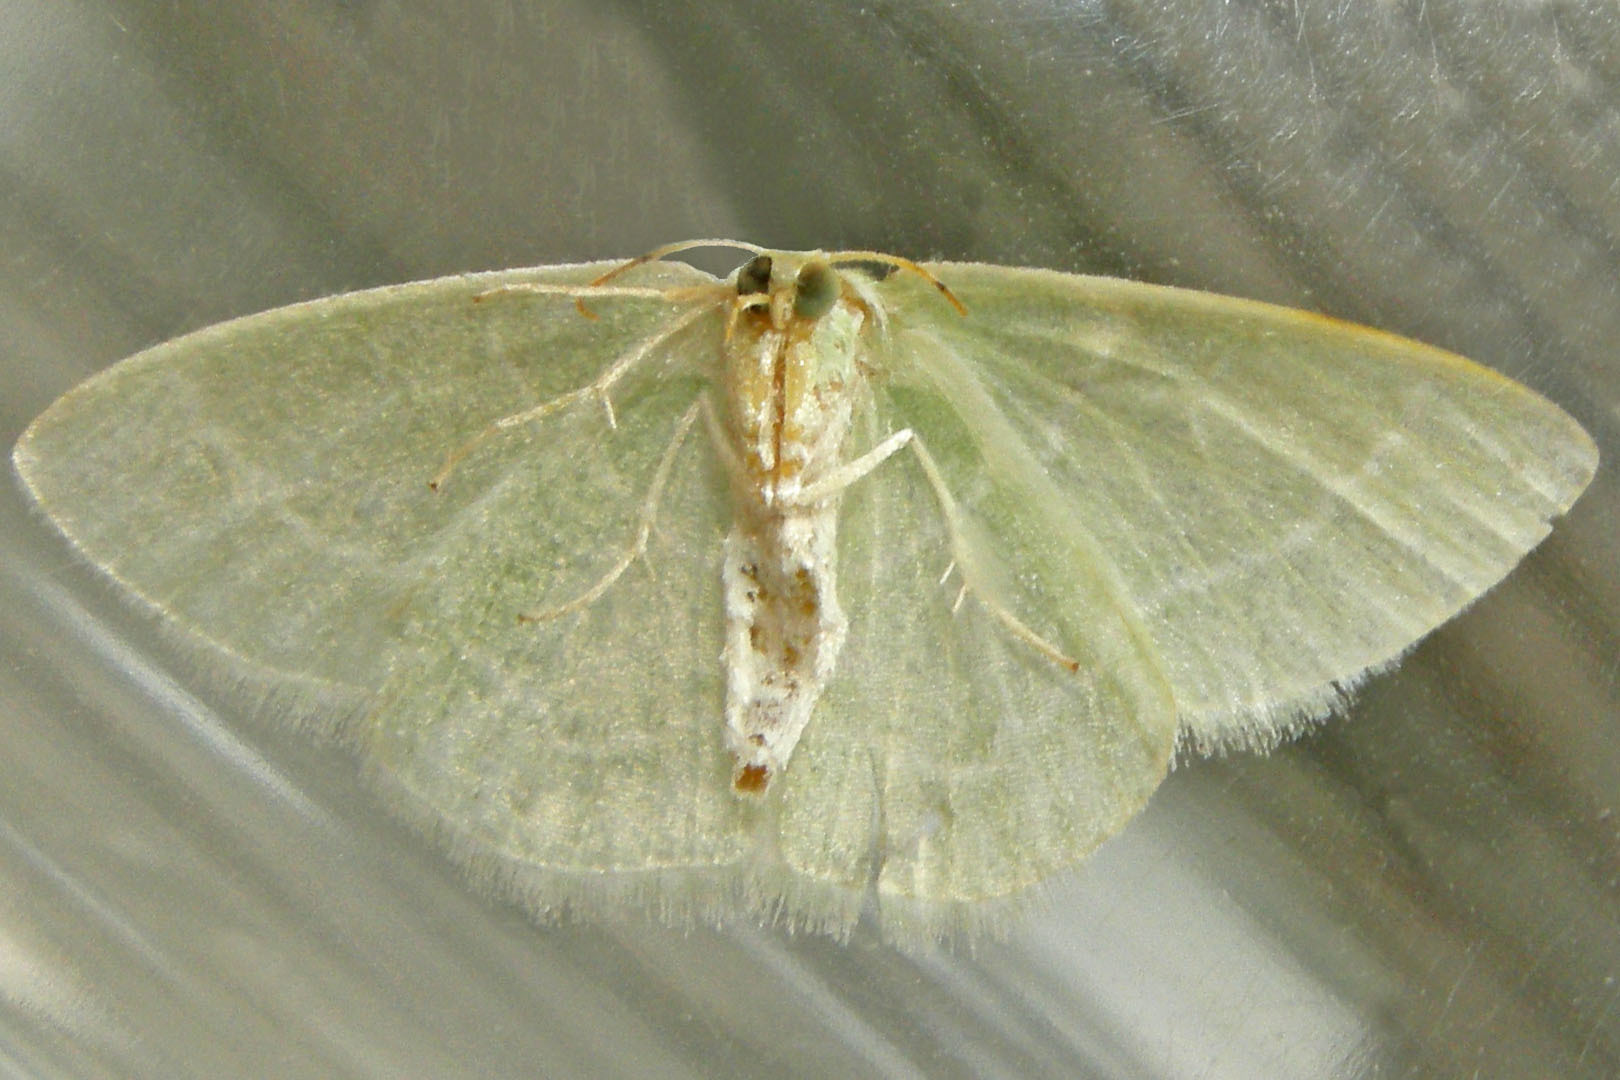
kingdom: Animalia
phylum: Arthropoda
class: Insecta
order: Lepidoptera
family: Geometridae
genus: Synchlora
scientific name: Synchlora aerata
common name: Wavy-lined emerald
